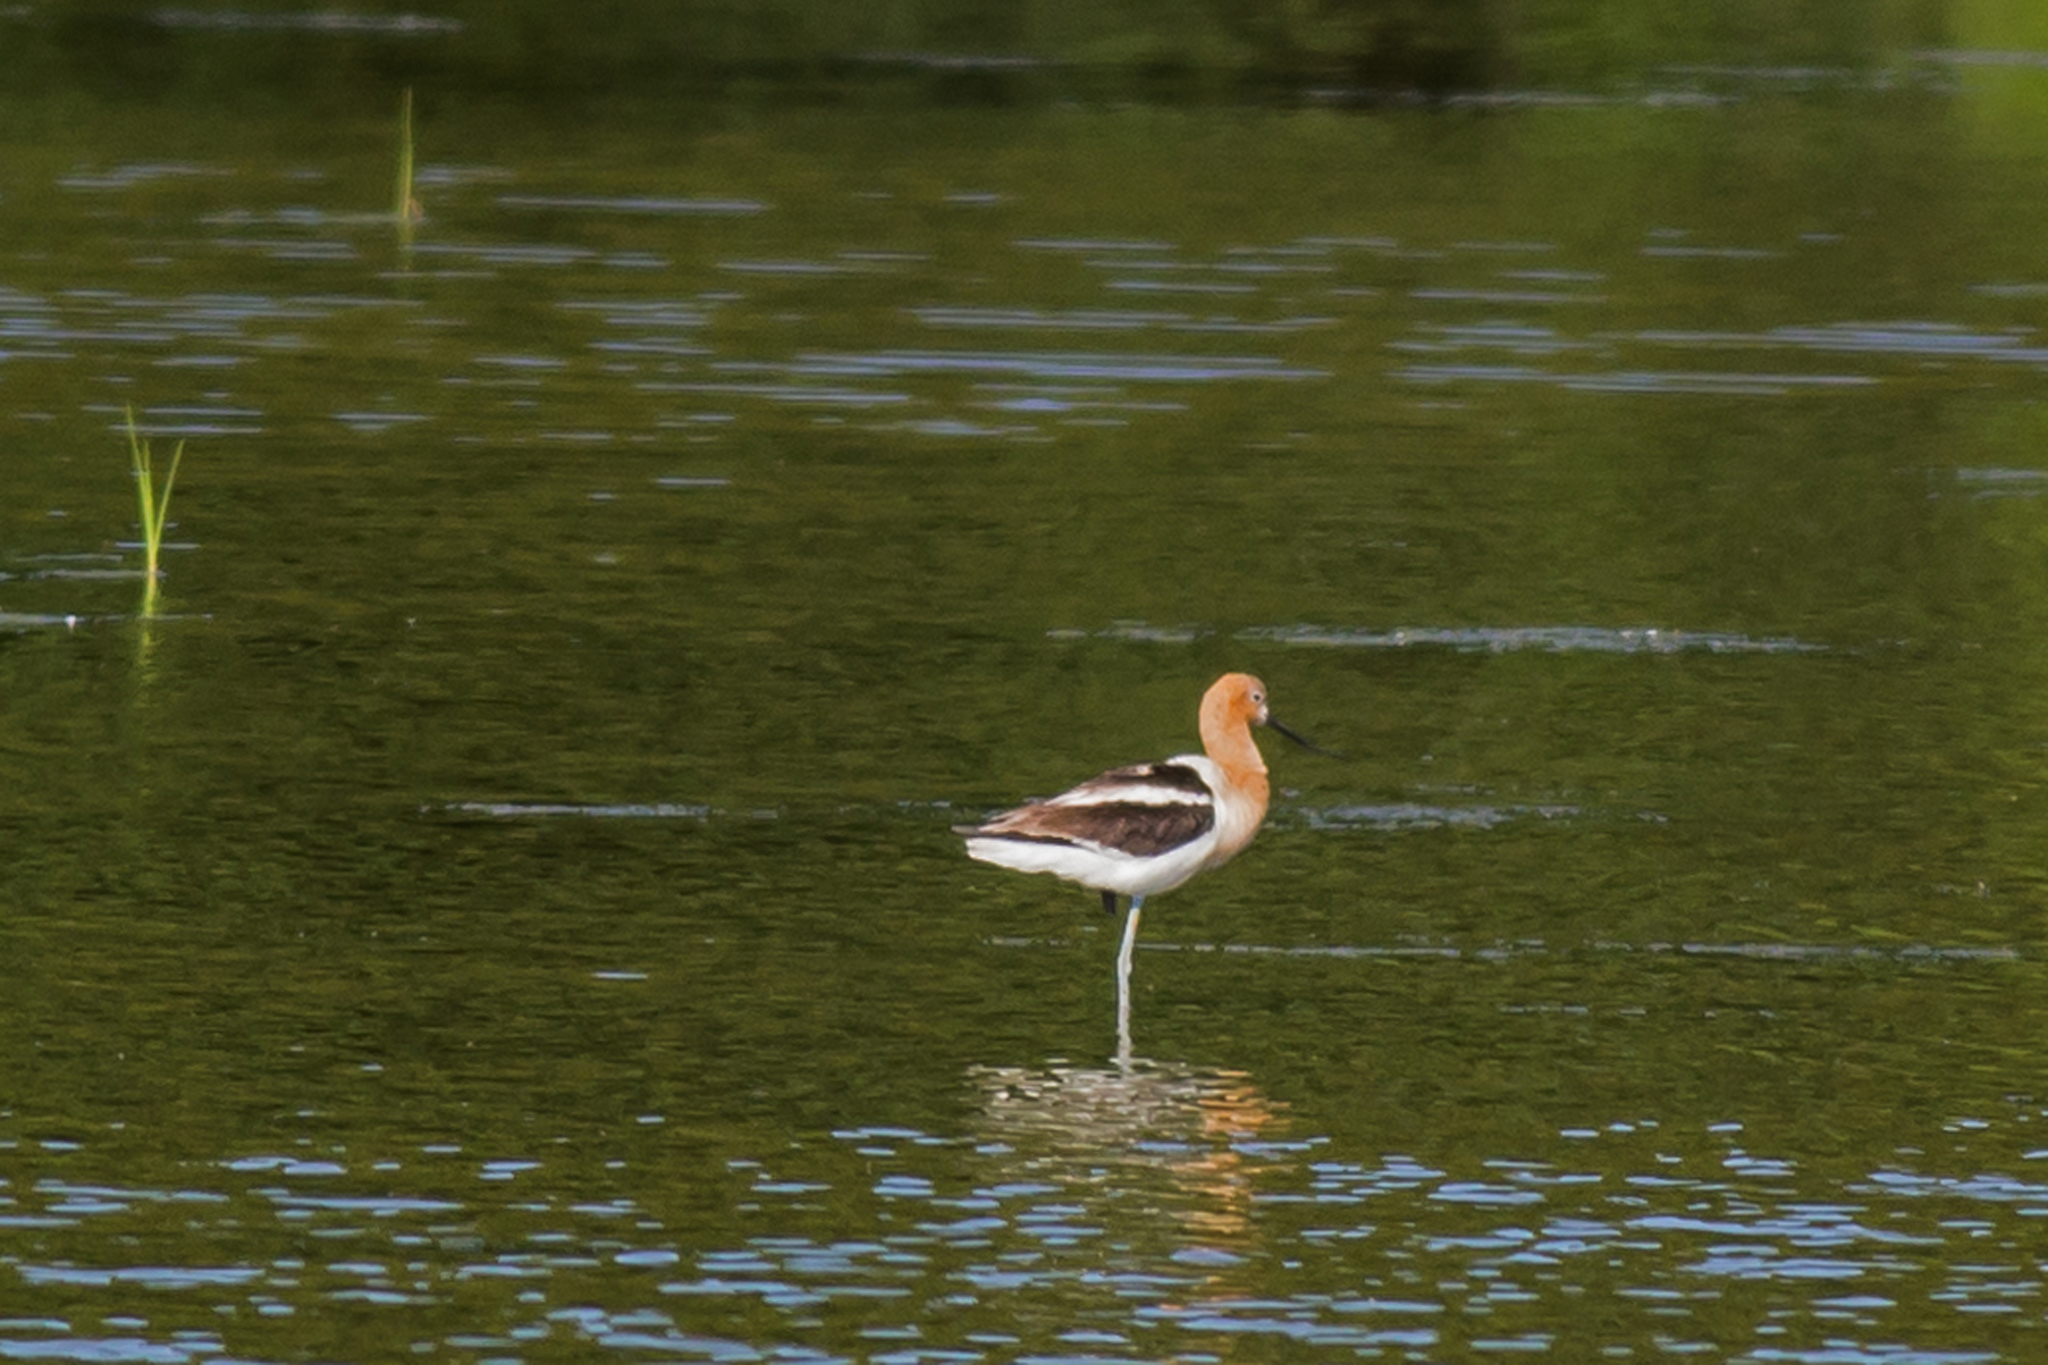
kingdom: Animalia
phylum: Chordata
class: Aves
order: Charadriiformes
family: Recurvirostridae
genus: Recurvirostra
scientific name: Recurvirostra americana
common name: American avocet
